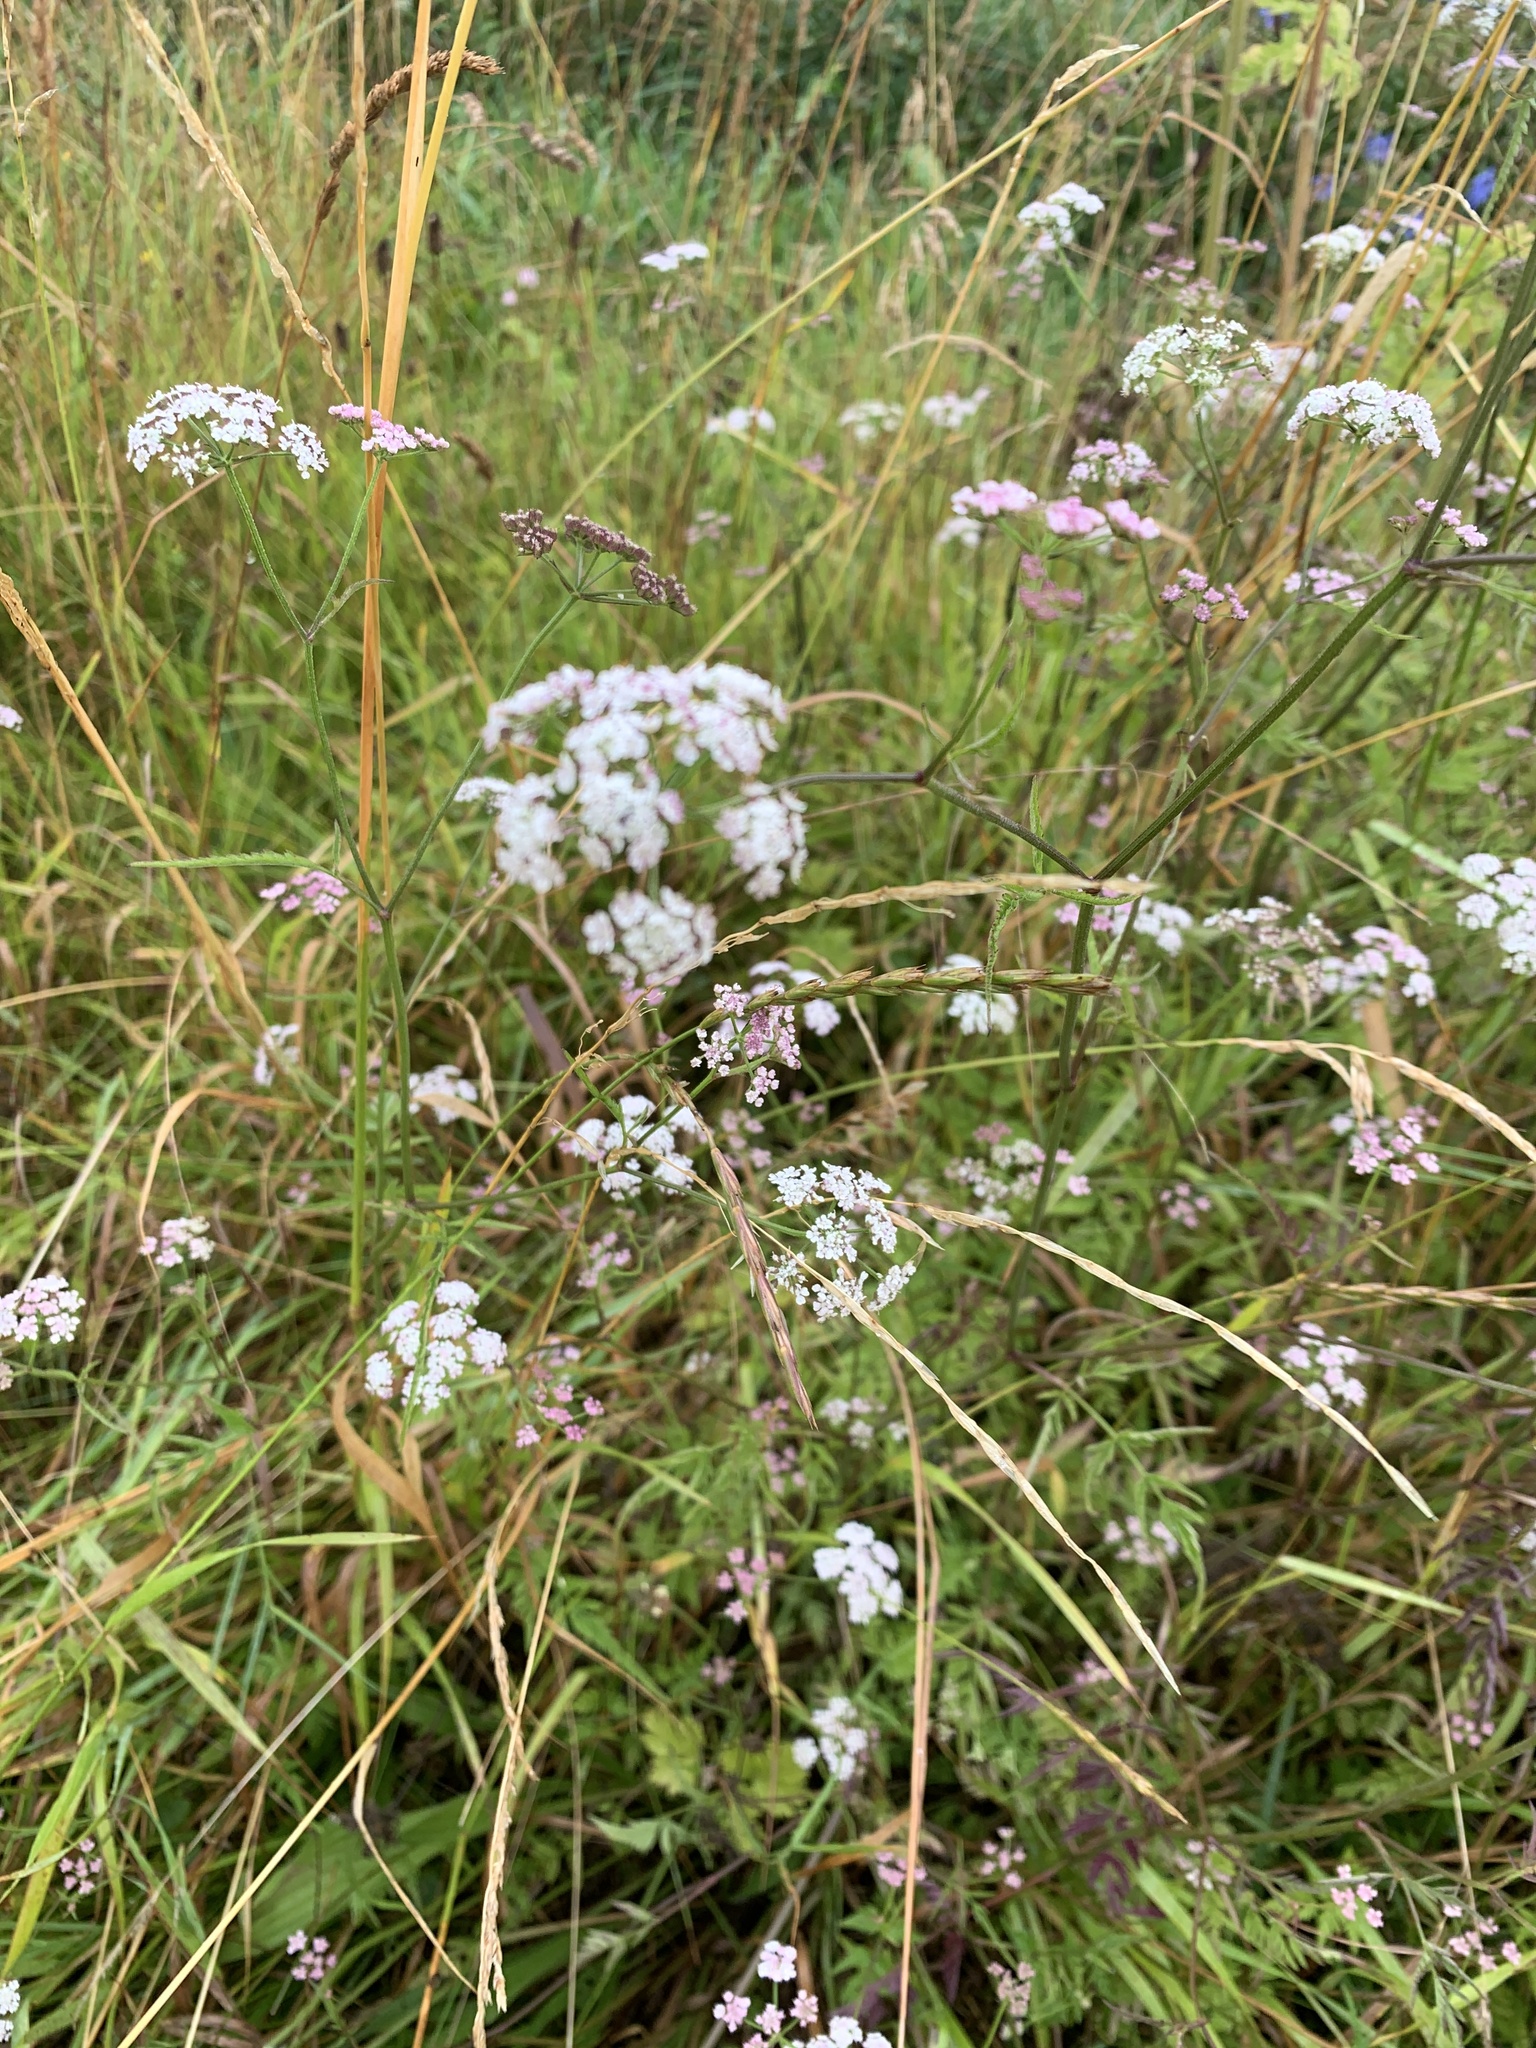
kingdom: Plantae
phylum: Tracheophyta
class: Magnoliopsida
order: Apiales
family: Apiaceae
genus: Chaerophyllum
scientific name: Chaerophyllum temulum
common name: Rough chervil
